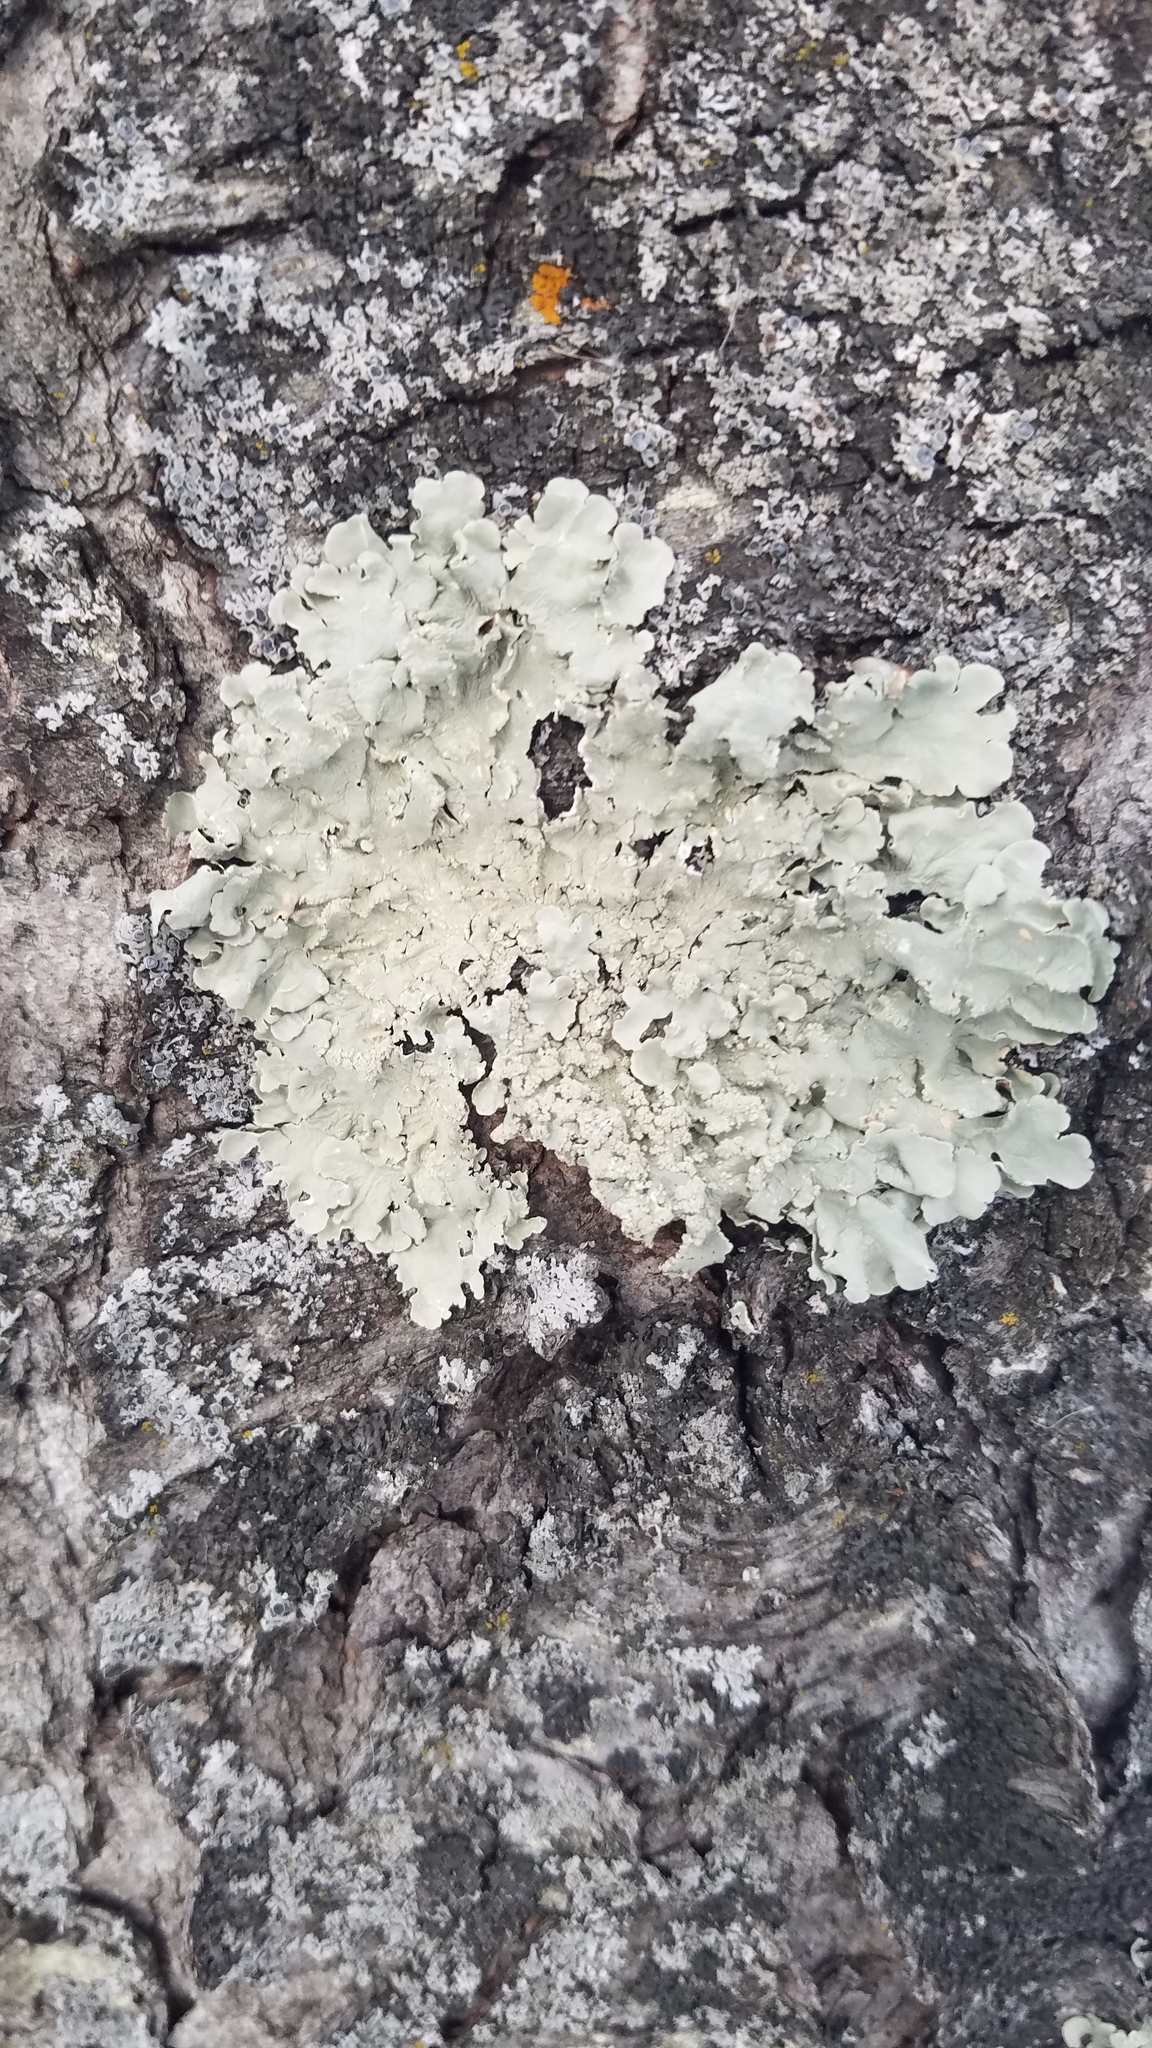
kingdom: Fungi
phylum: Ascomycota
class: Lecanoromycetes
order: Lecanorales
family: Parmeliaceae
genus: Flavoparmelia
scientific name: Flavoparmelia caperata
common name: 40-mile per hour lichen
